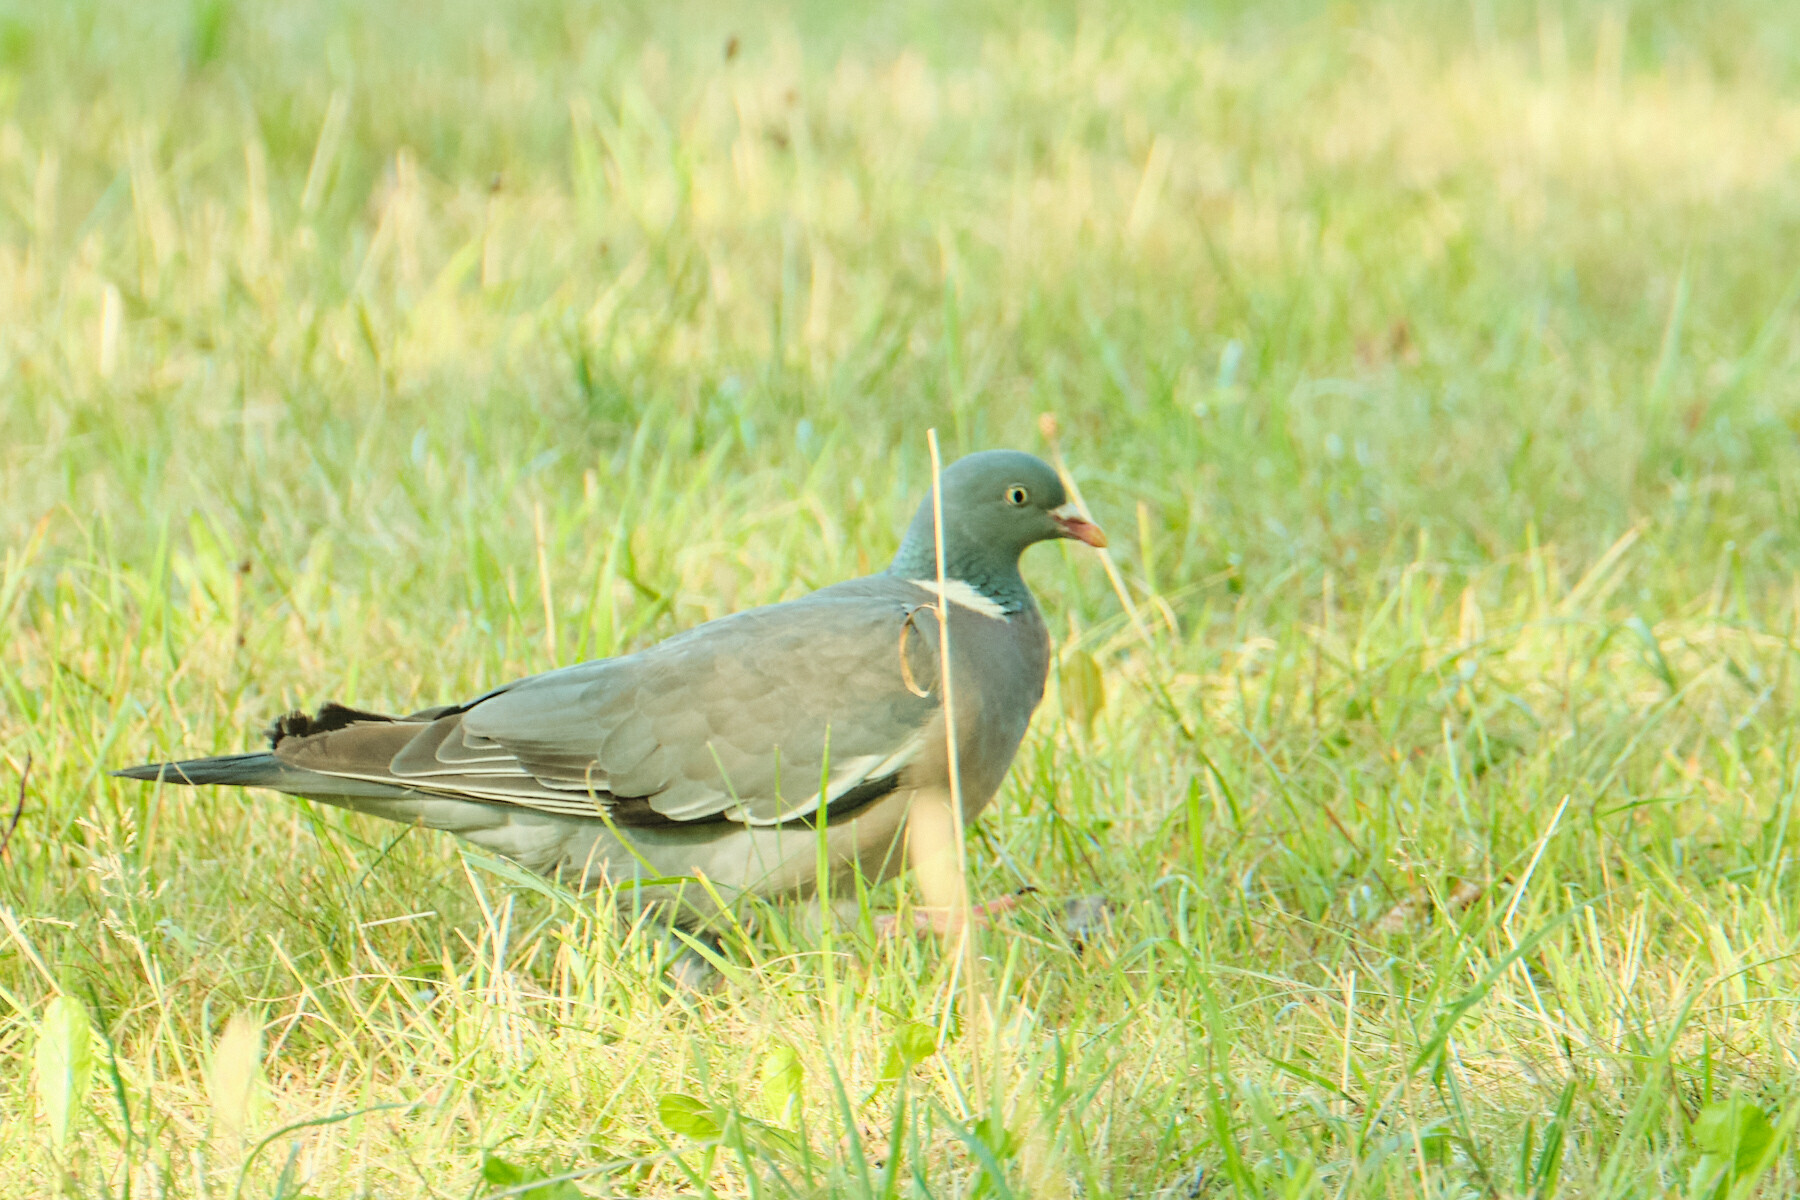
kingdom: Animalia
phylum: Chordata
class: Aves
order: Columbiformes
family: Columbidae
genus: Columba
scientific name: Columba palumbus
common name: Common wood pigeon
